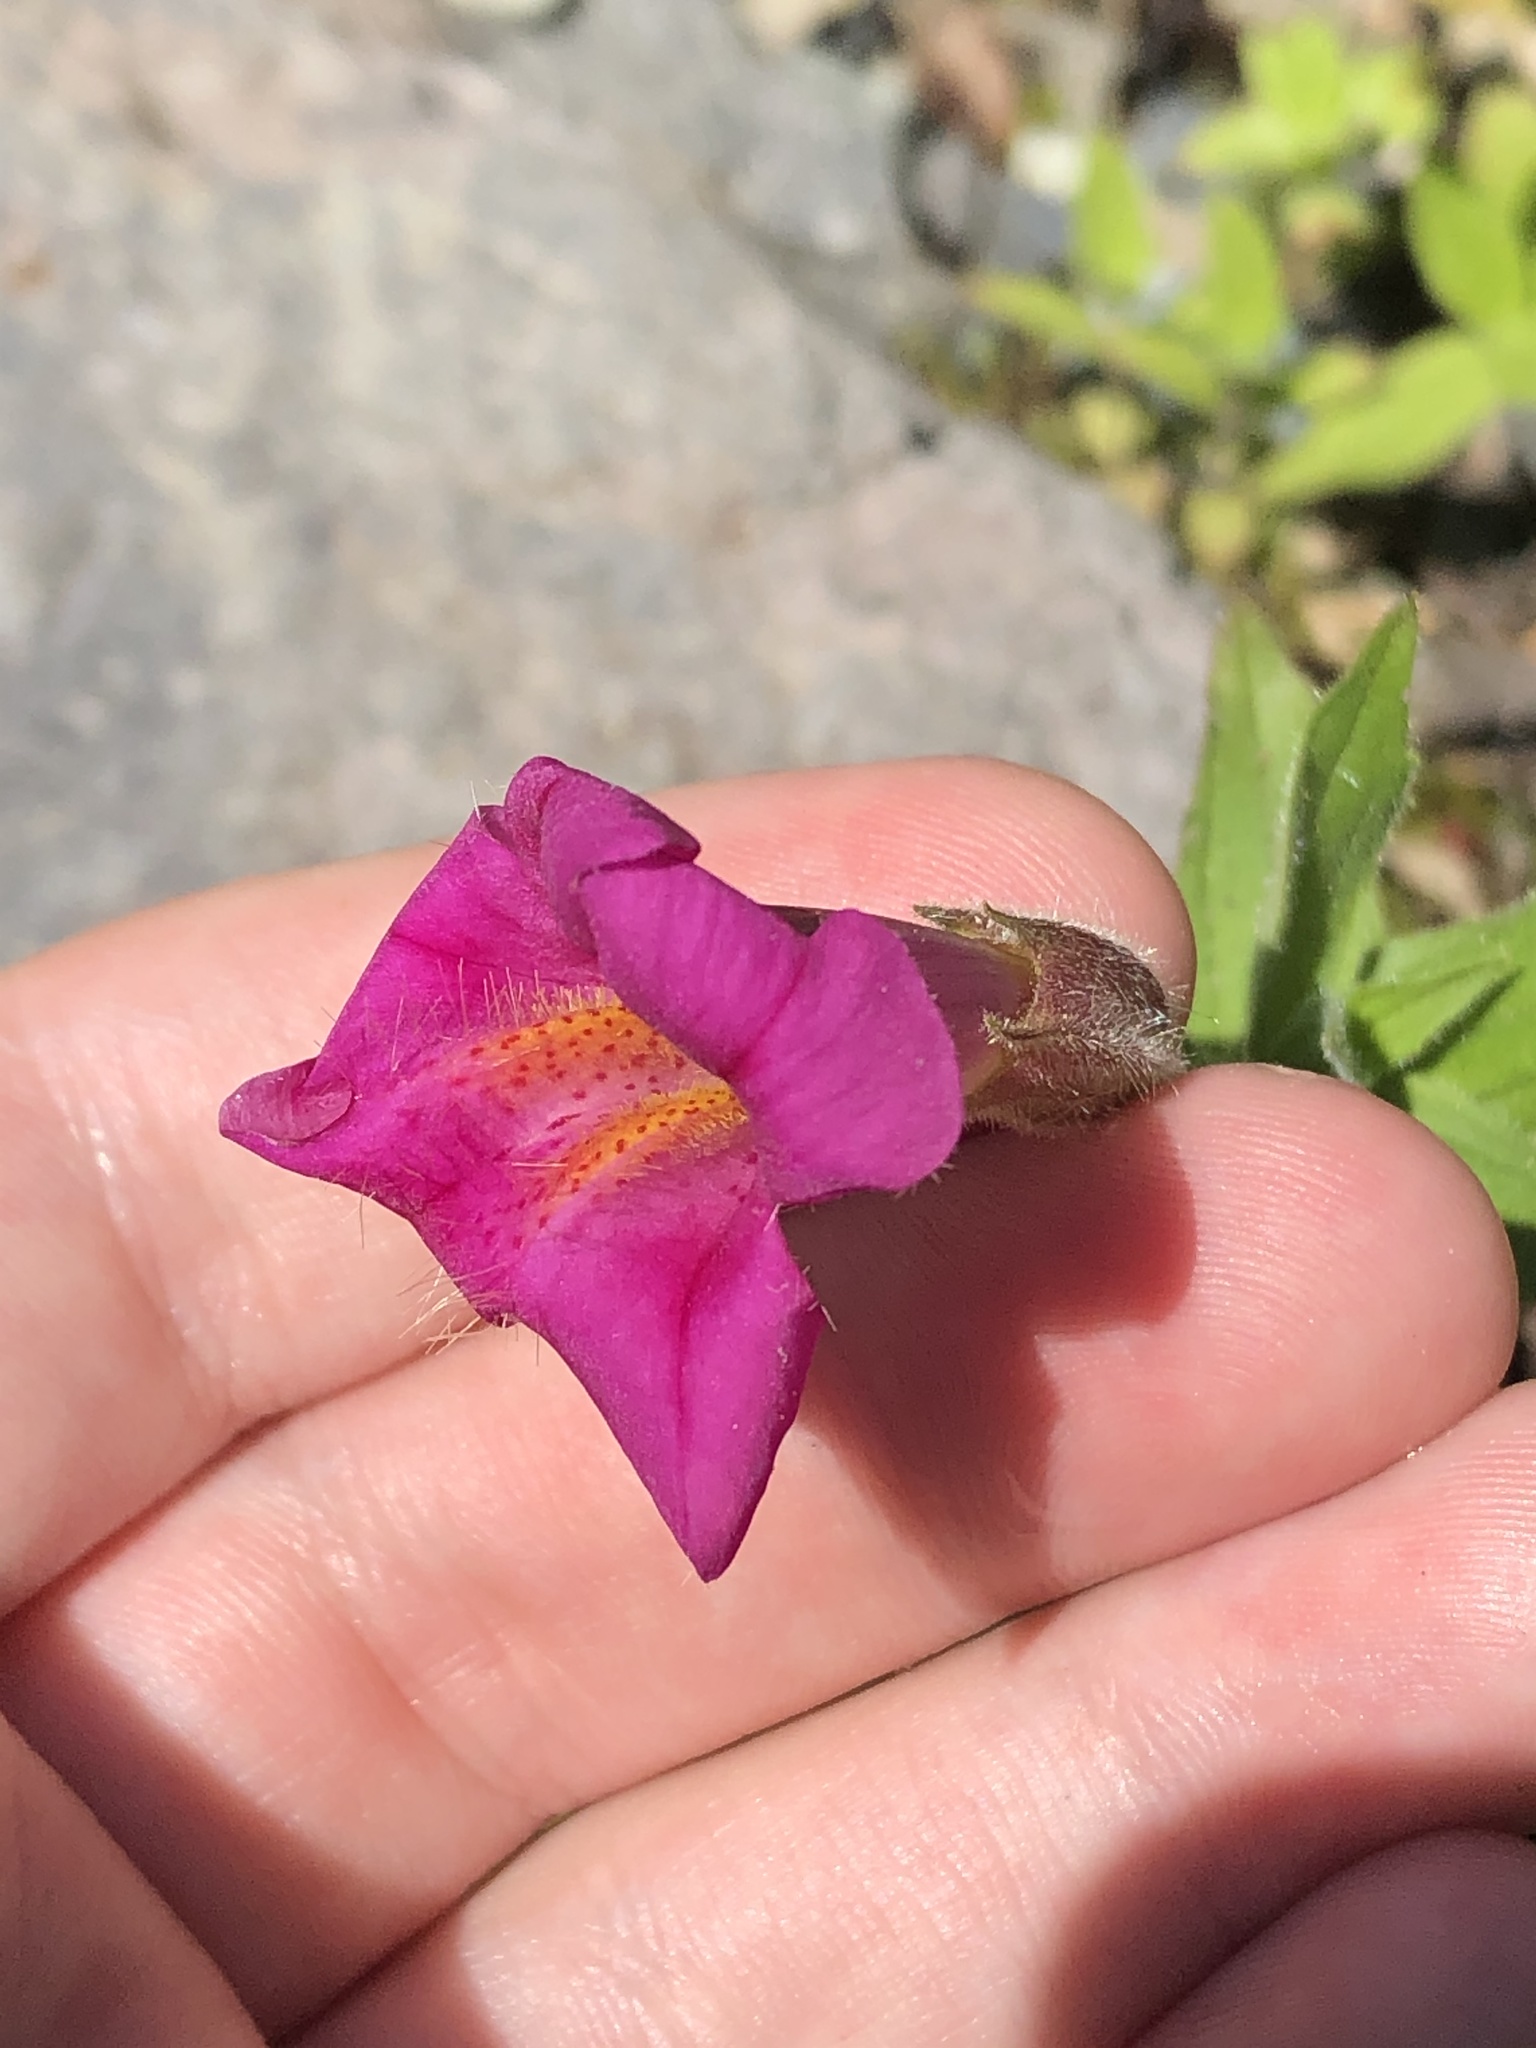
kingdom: Plantae
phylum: Tracheophyta
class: Magnoliopsida
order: Lamiales
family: Phrymaceae
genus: Erythranthe
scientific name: Erythranthe lewisii
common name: Lewis's monkey-flower
